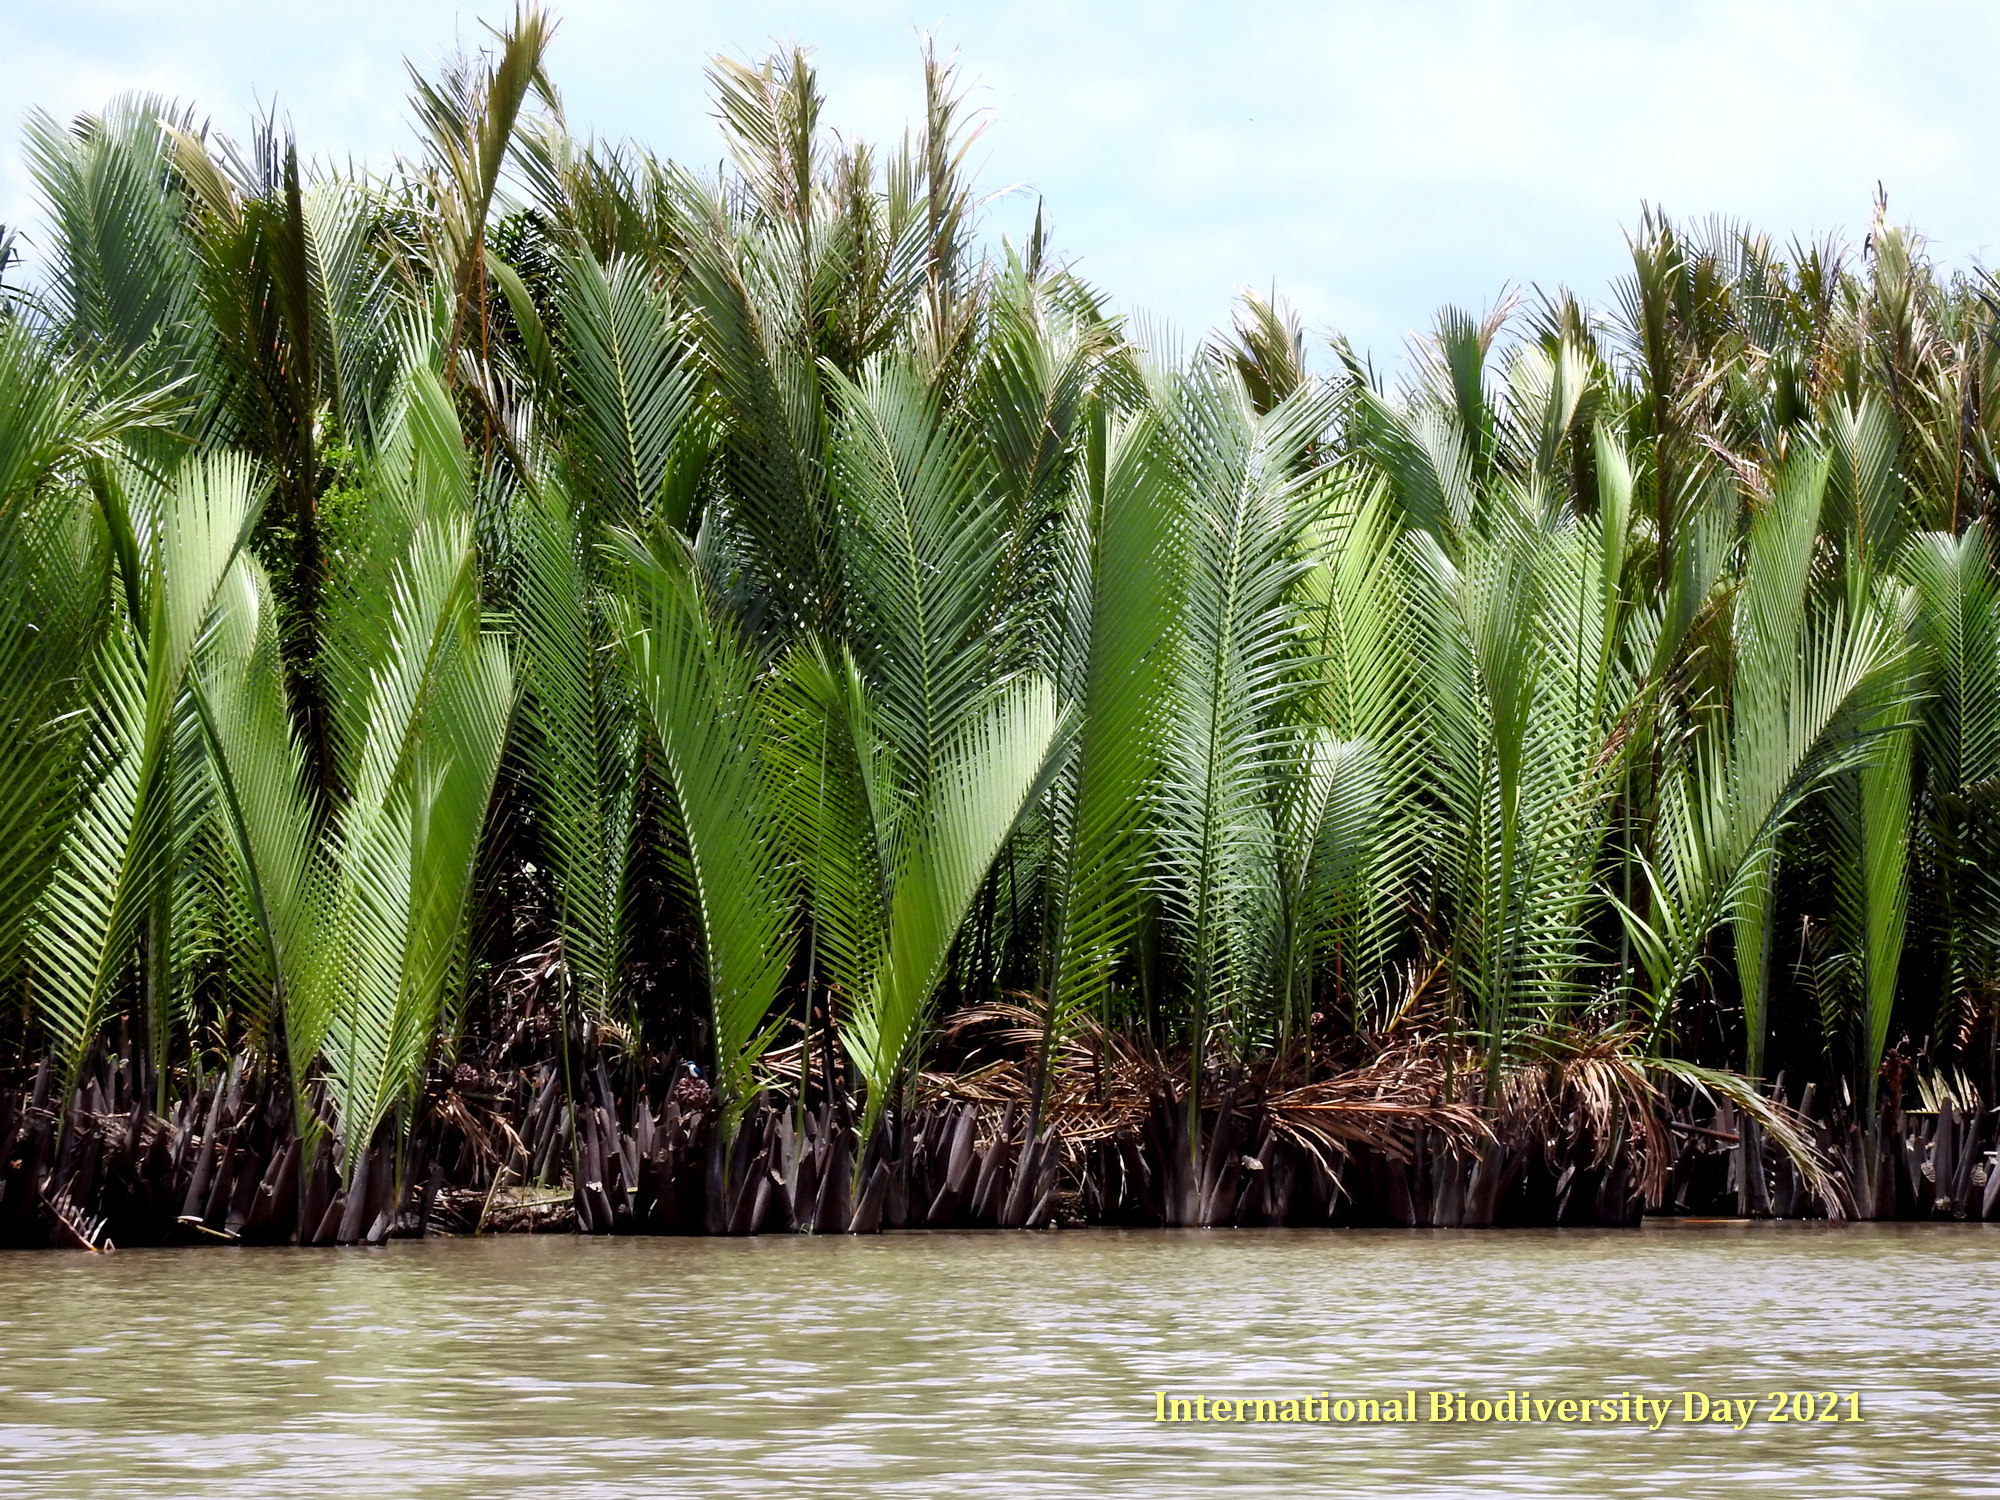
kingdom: Plantae
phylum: Tracheophyta
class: Liliopsida
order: Arecales
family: Arecaceae
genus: Nypa
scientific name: Nypa fruticans
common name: Mangrove palm
